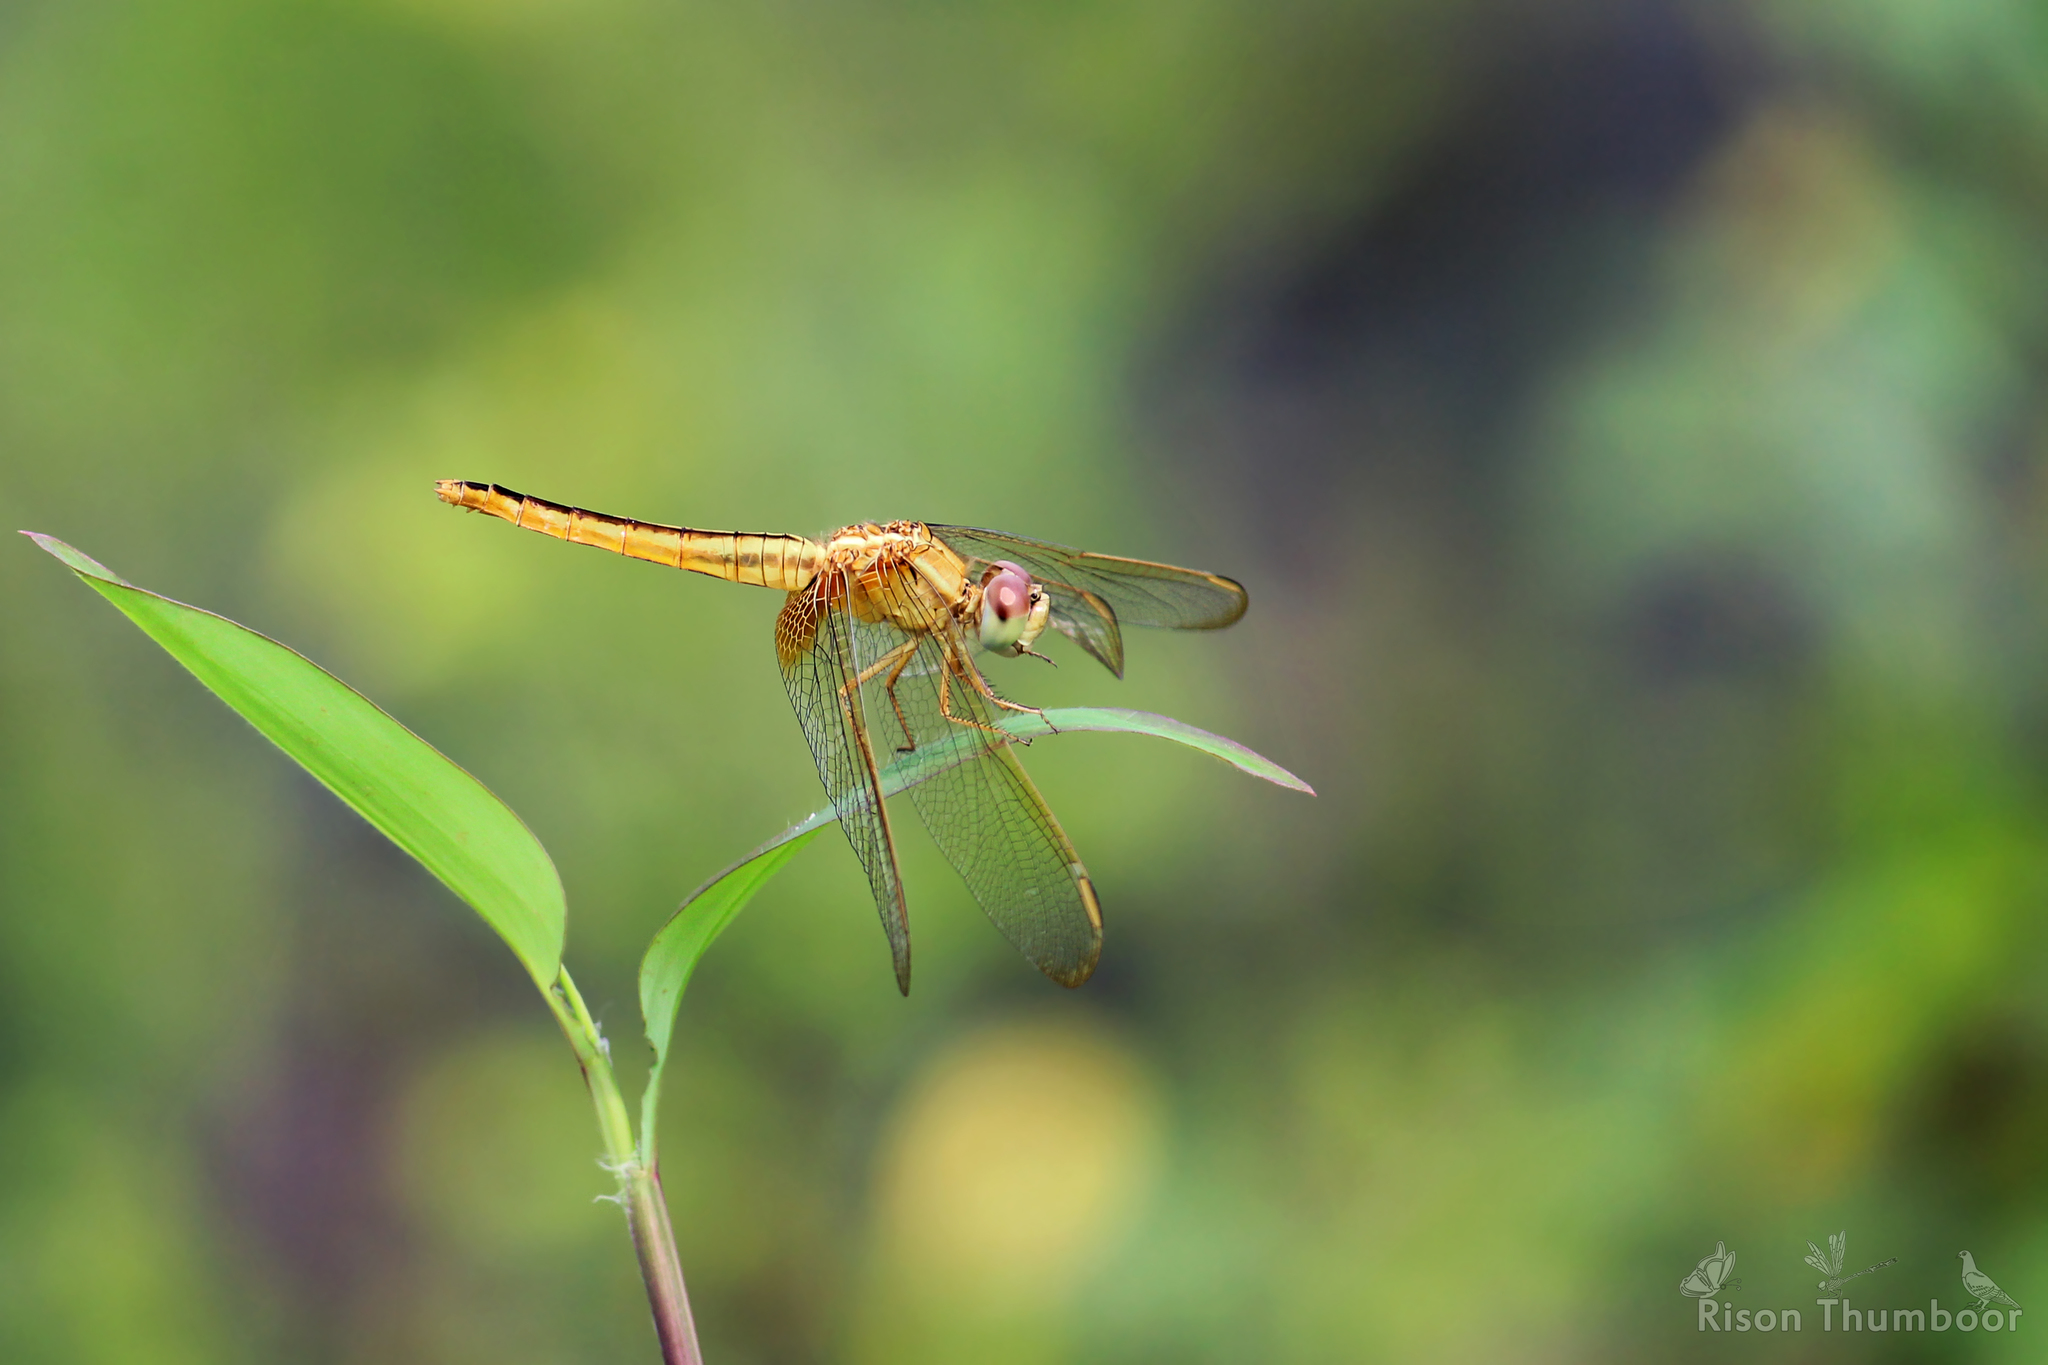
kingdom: Animalia
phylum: Arthropoda
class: Insecta
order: Odonata
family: Libellulidae
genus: Crocothemis
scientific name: Crocothemis servilia
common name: Scarlet skimmer
